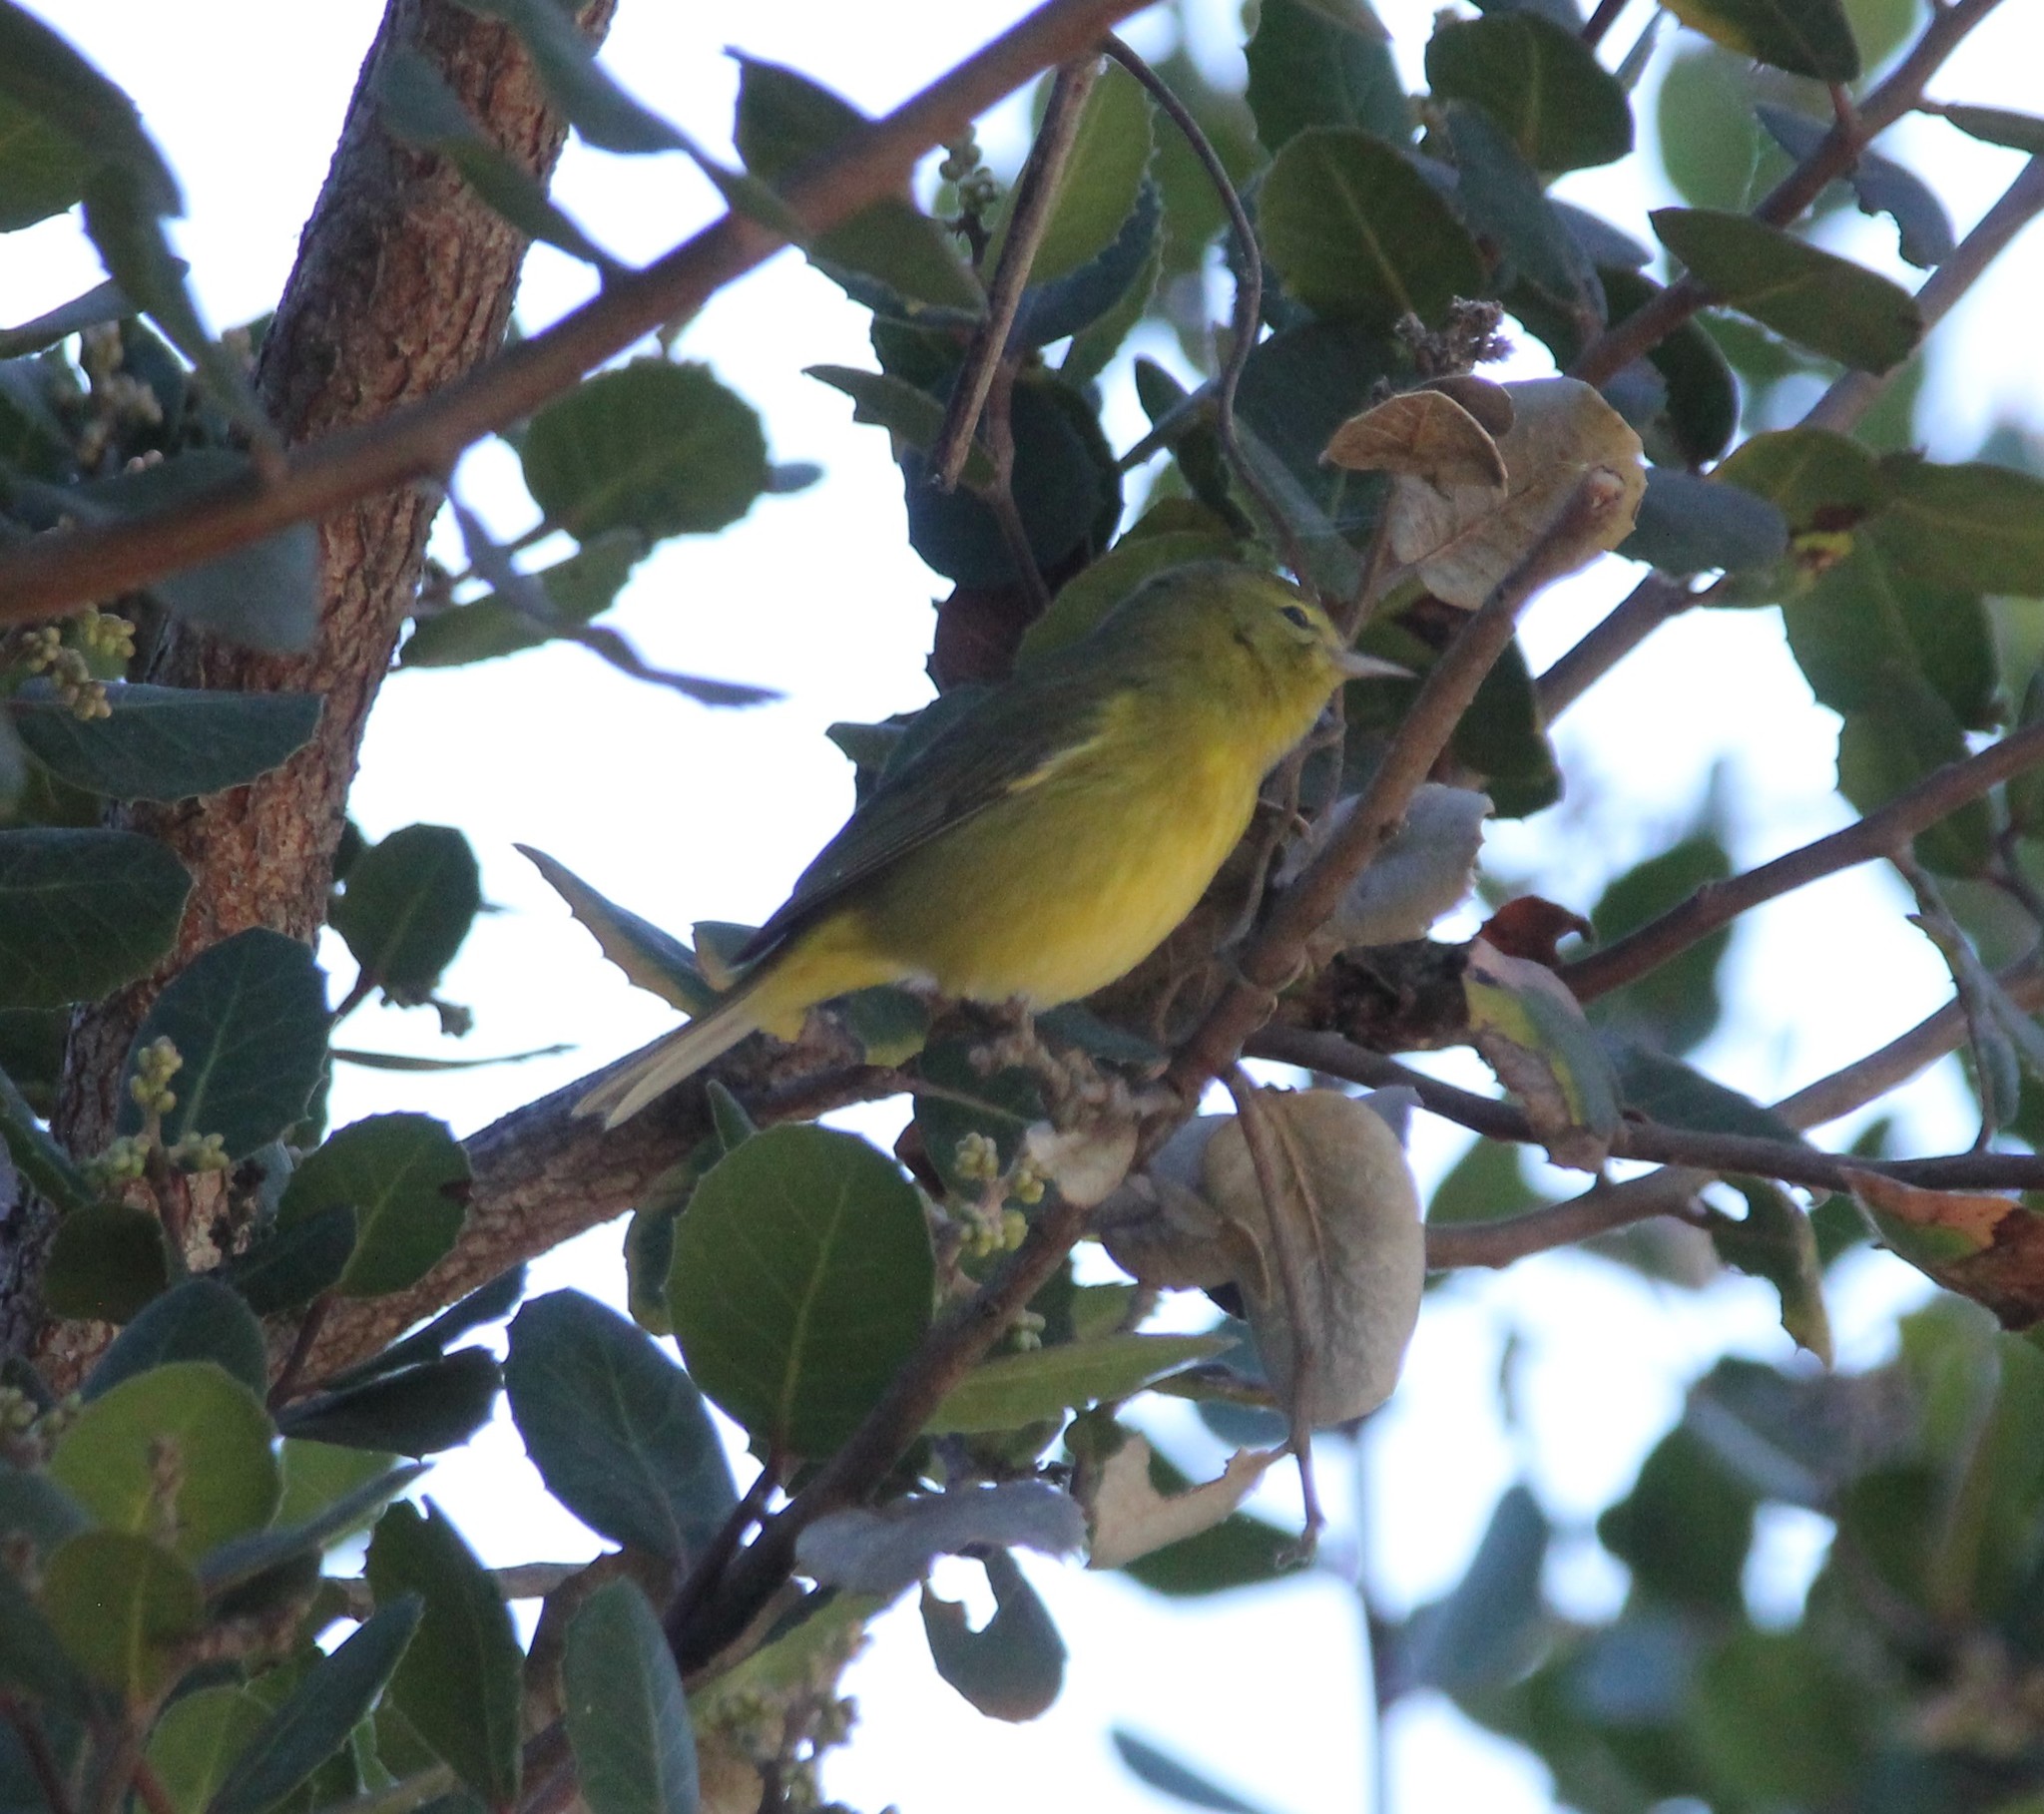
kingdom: Animalia
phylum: Chordata
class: Aves
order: Passeriformes
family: Parulidae
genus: Leiothlypis
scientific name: Leiothlypis celata
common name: Orange-crowned warbler
